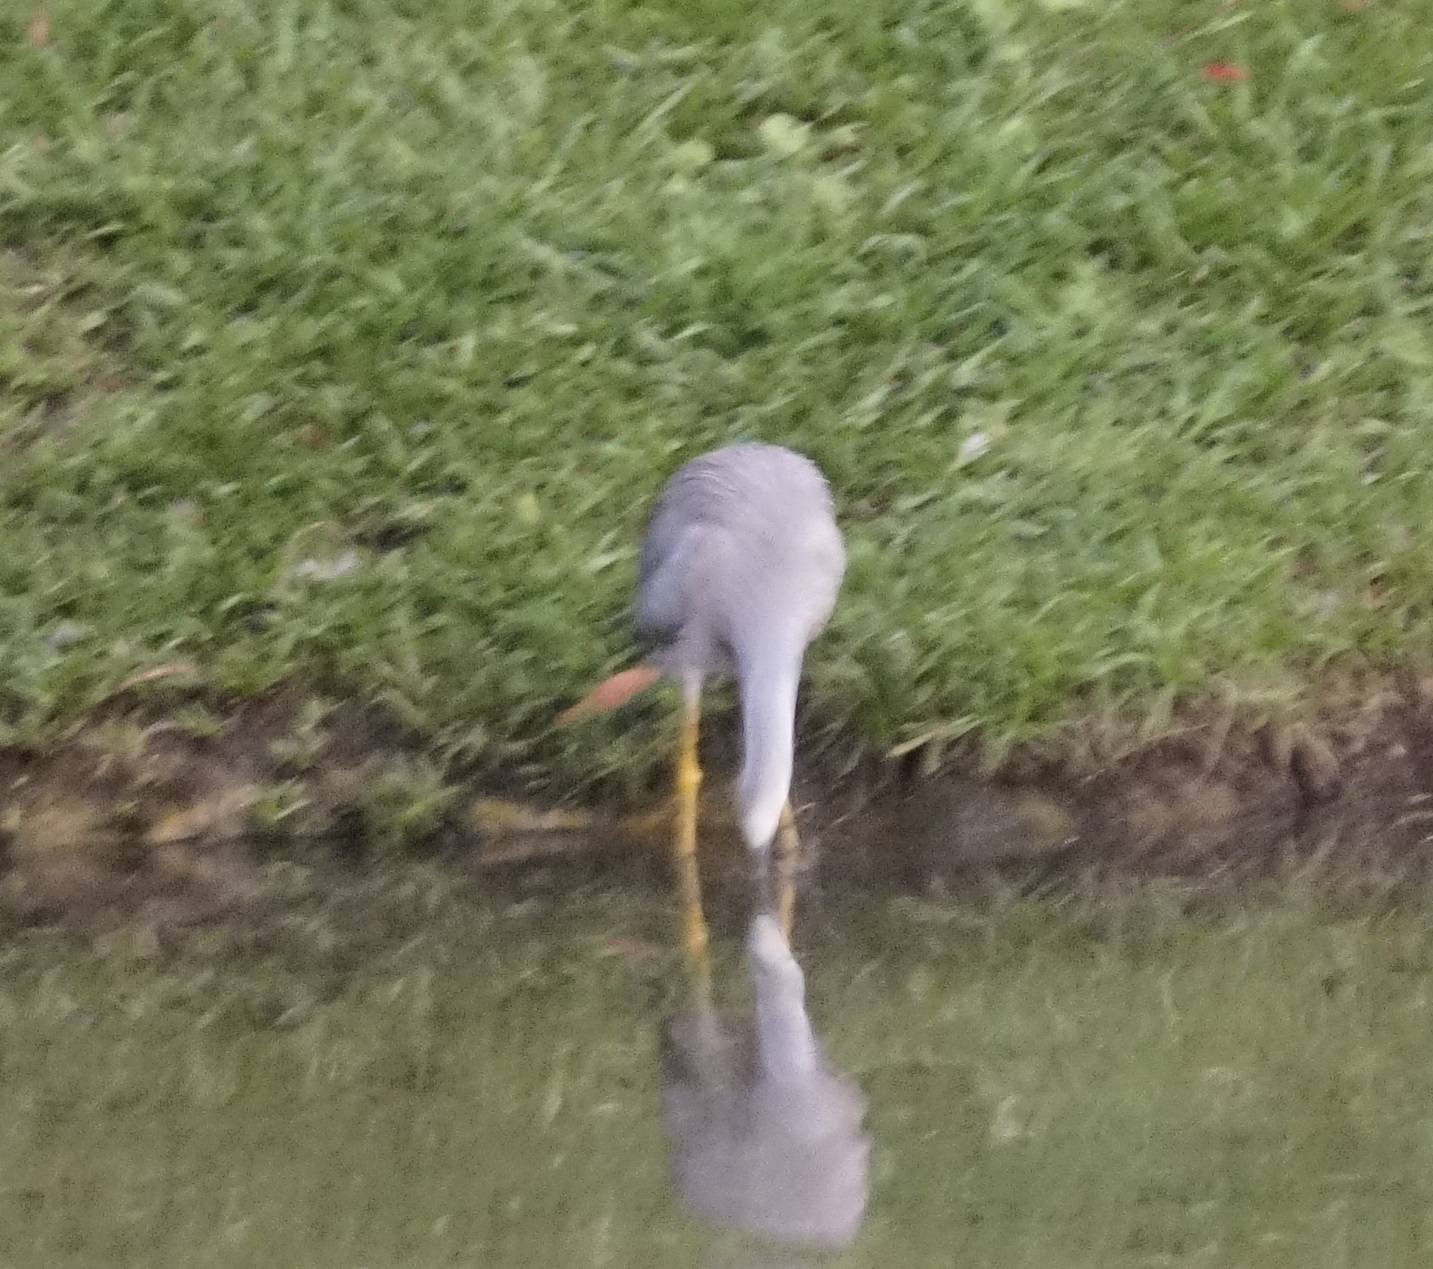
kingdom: Animalia
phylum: Chordata
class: Aves
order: Pelecaniformes
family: Ardeidae
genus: Egretta
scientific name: Egretta novaehollandiae
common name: White-faced heron
